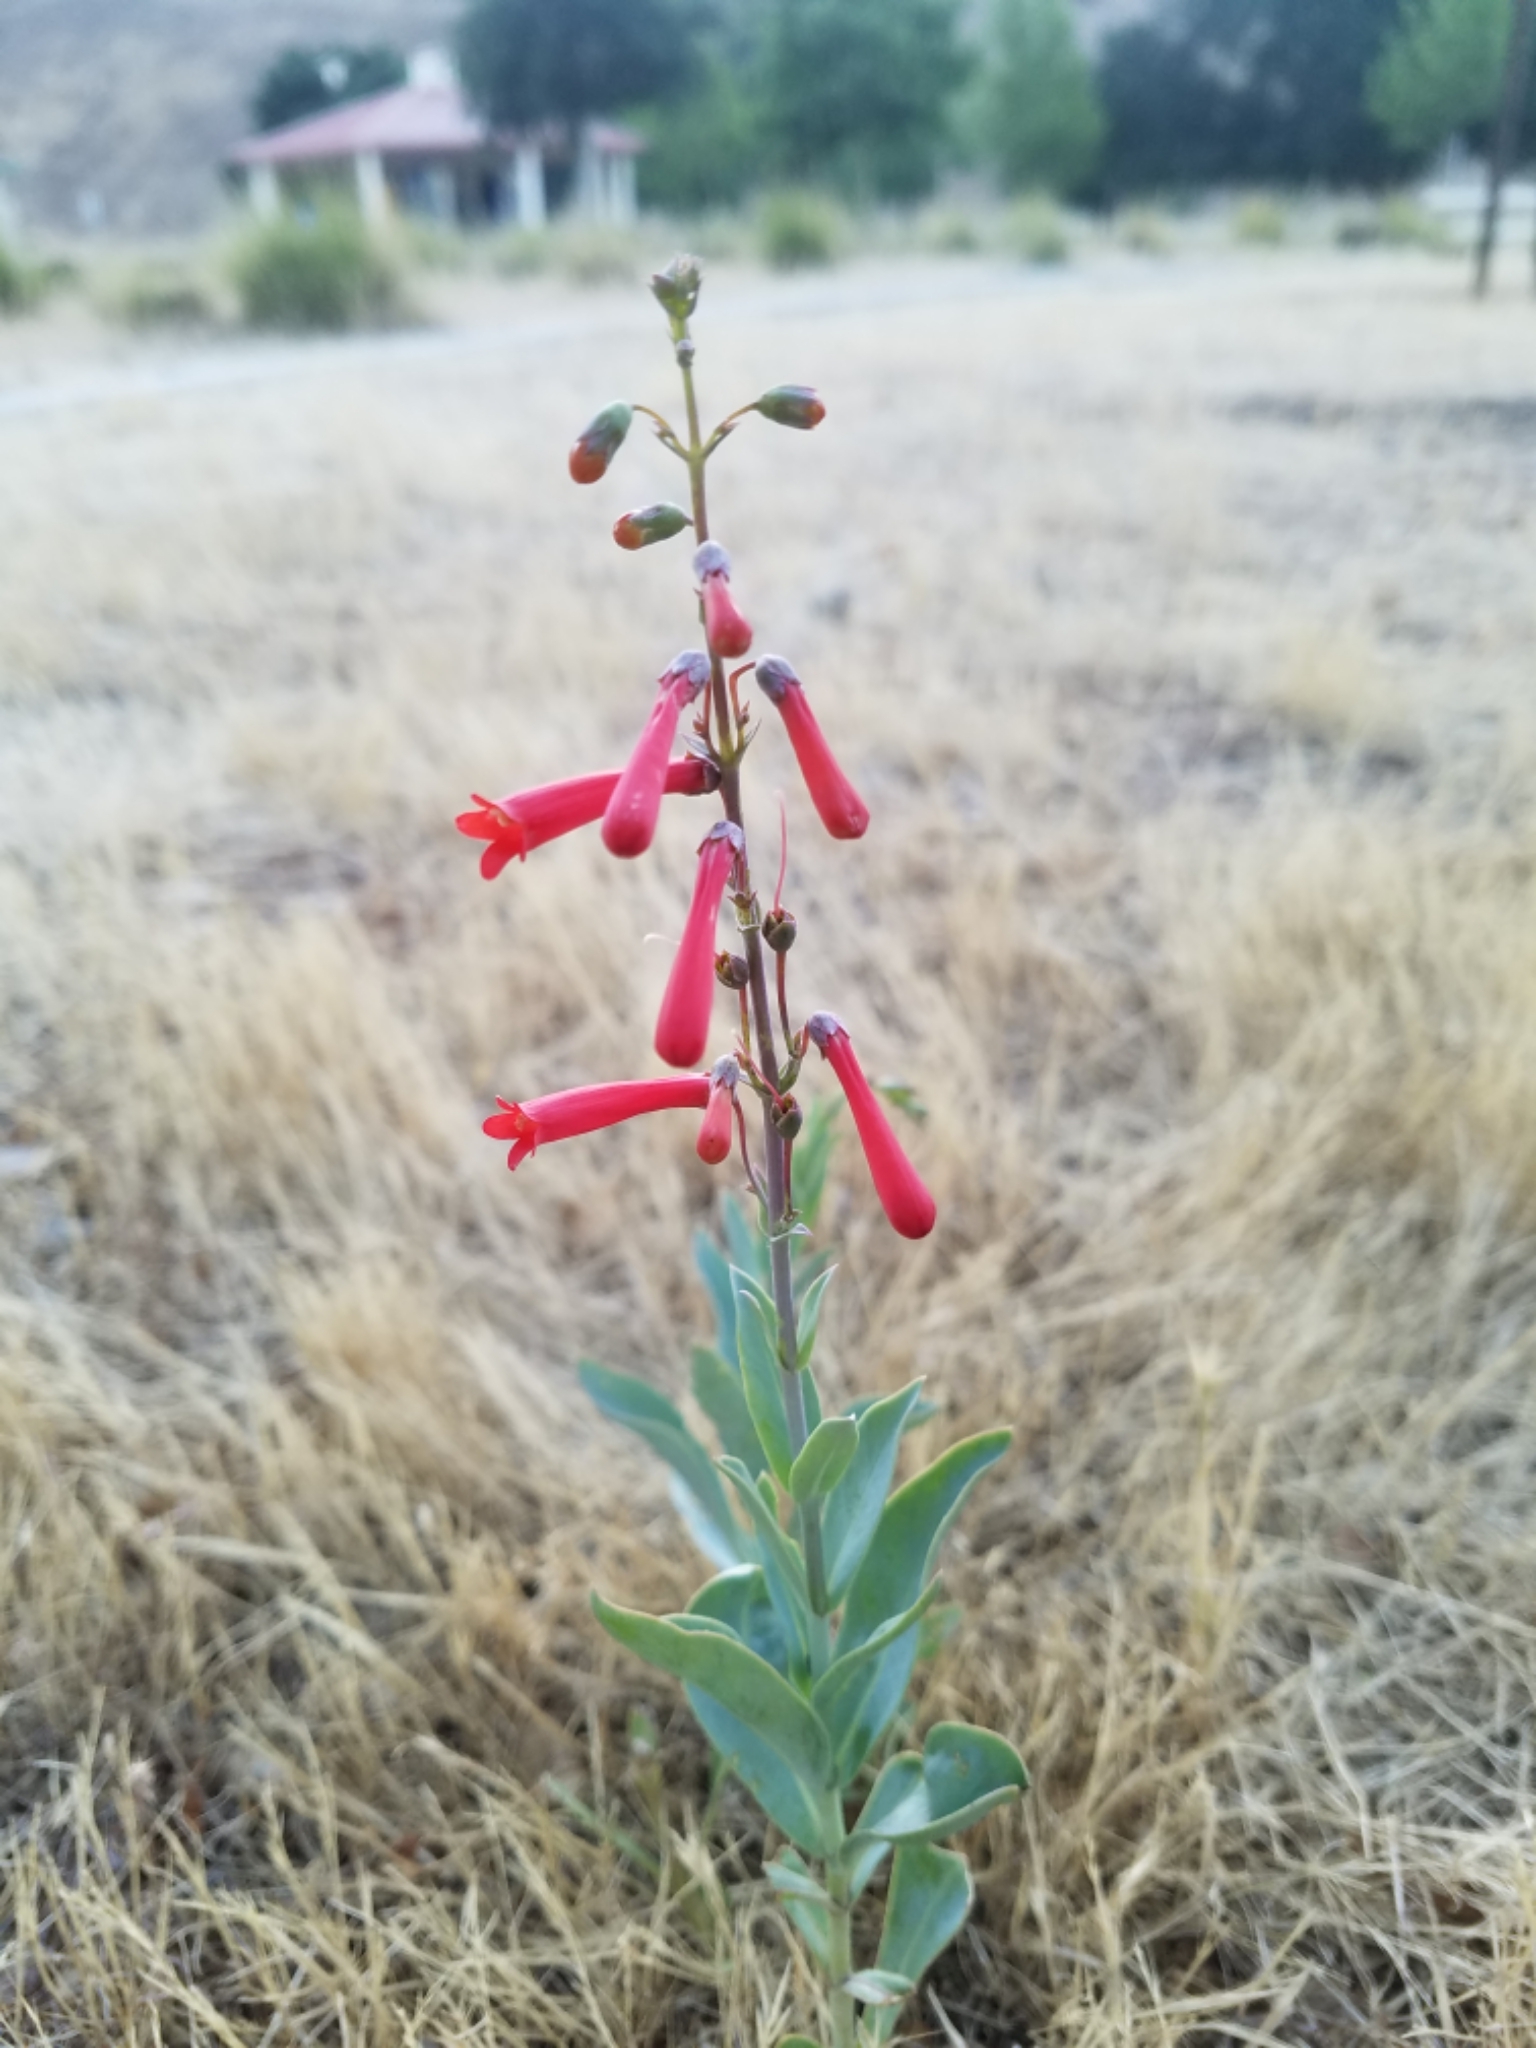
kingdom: Plantae
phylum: Tracheophyta
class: Magnoliopsida
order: Lamiales
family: Plantaginaceae
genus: Penstemon
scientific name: Penstemon centranthifolius
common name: Scarlet bugler
